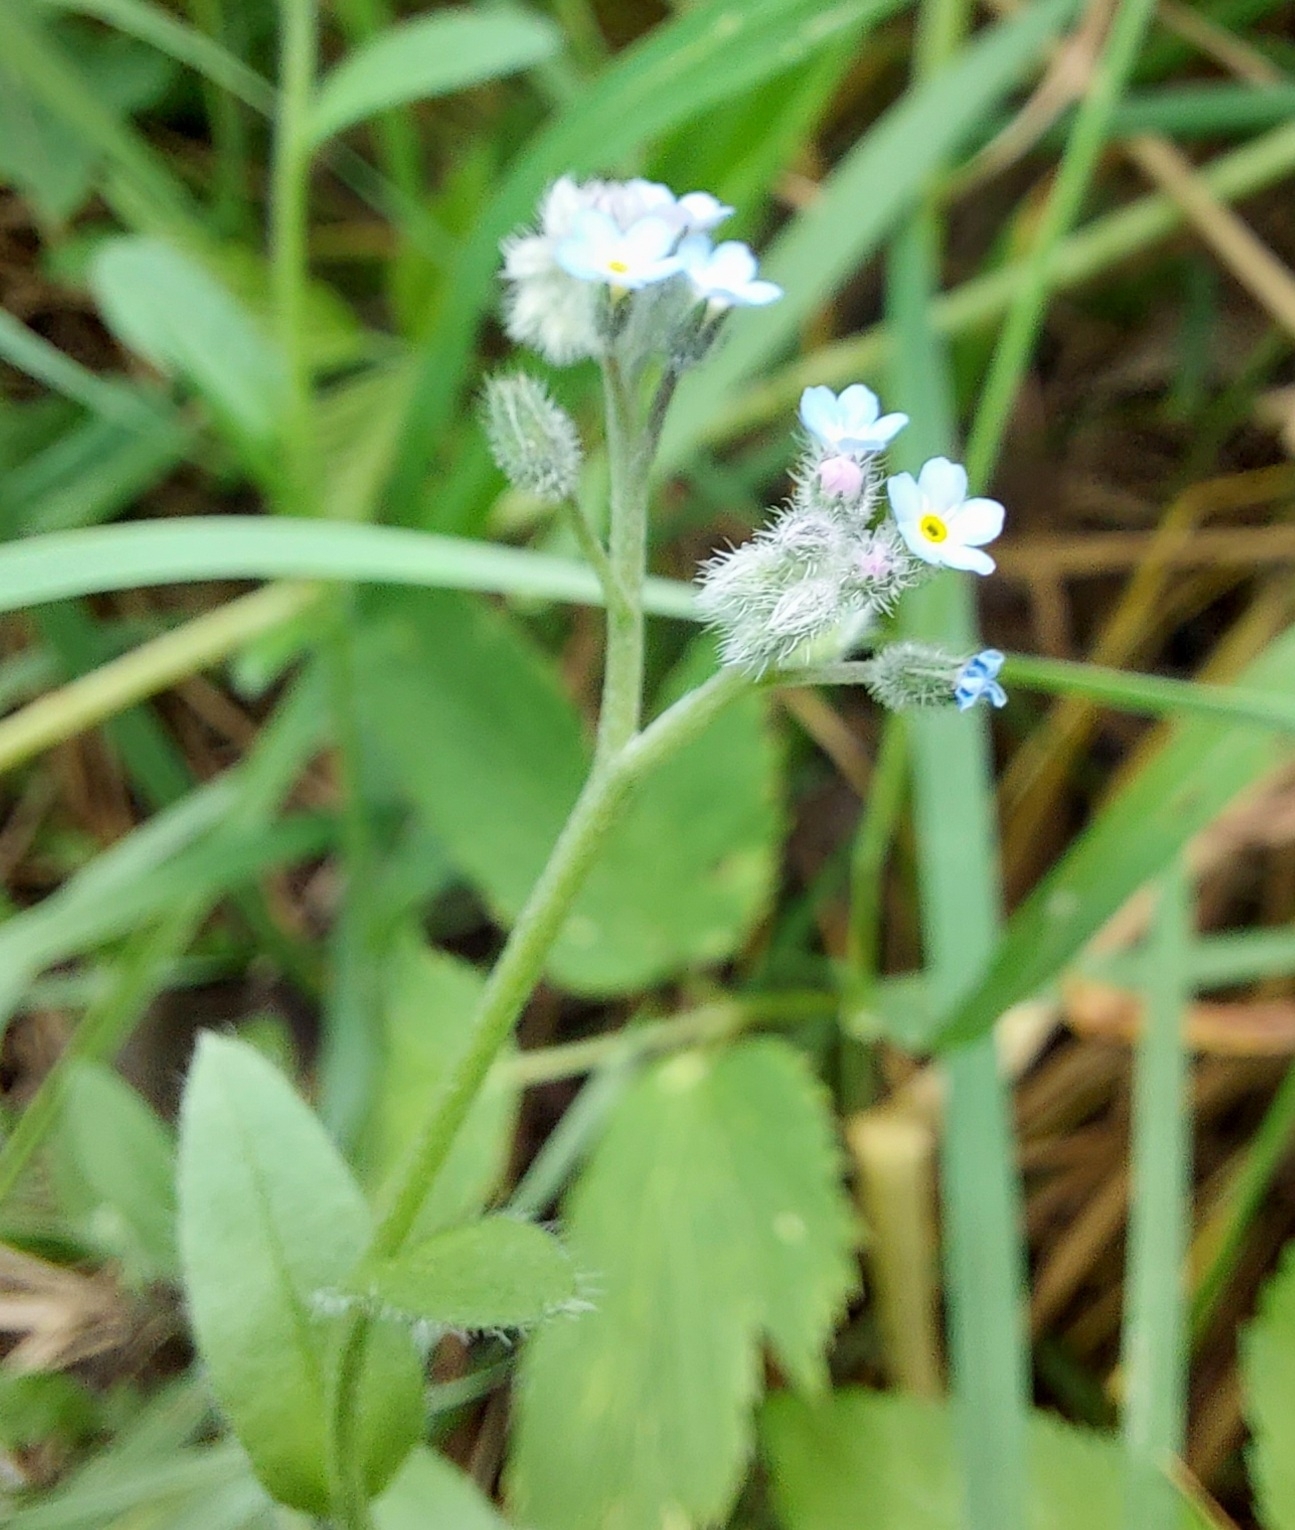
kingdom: Plantae
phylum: Tracheophyta
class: Magnoliopsida
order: Boraginales
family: Boraginaceae
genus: Myosotis
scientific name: Myosotis arvensis
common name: Field forget-me-not
